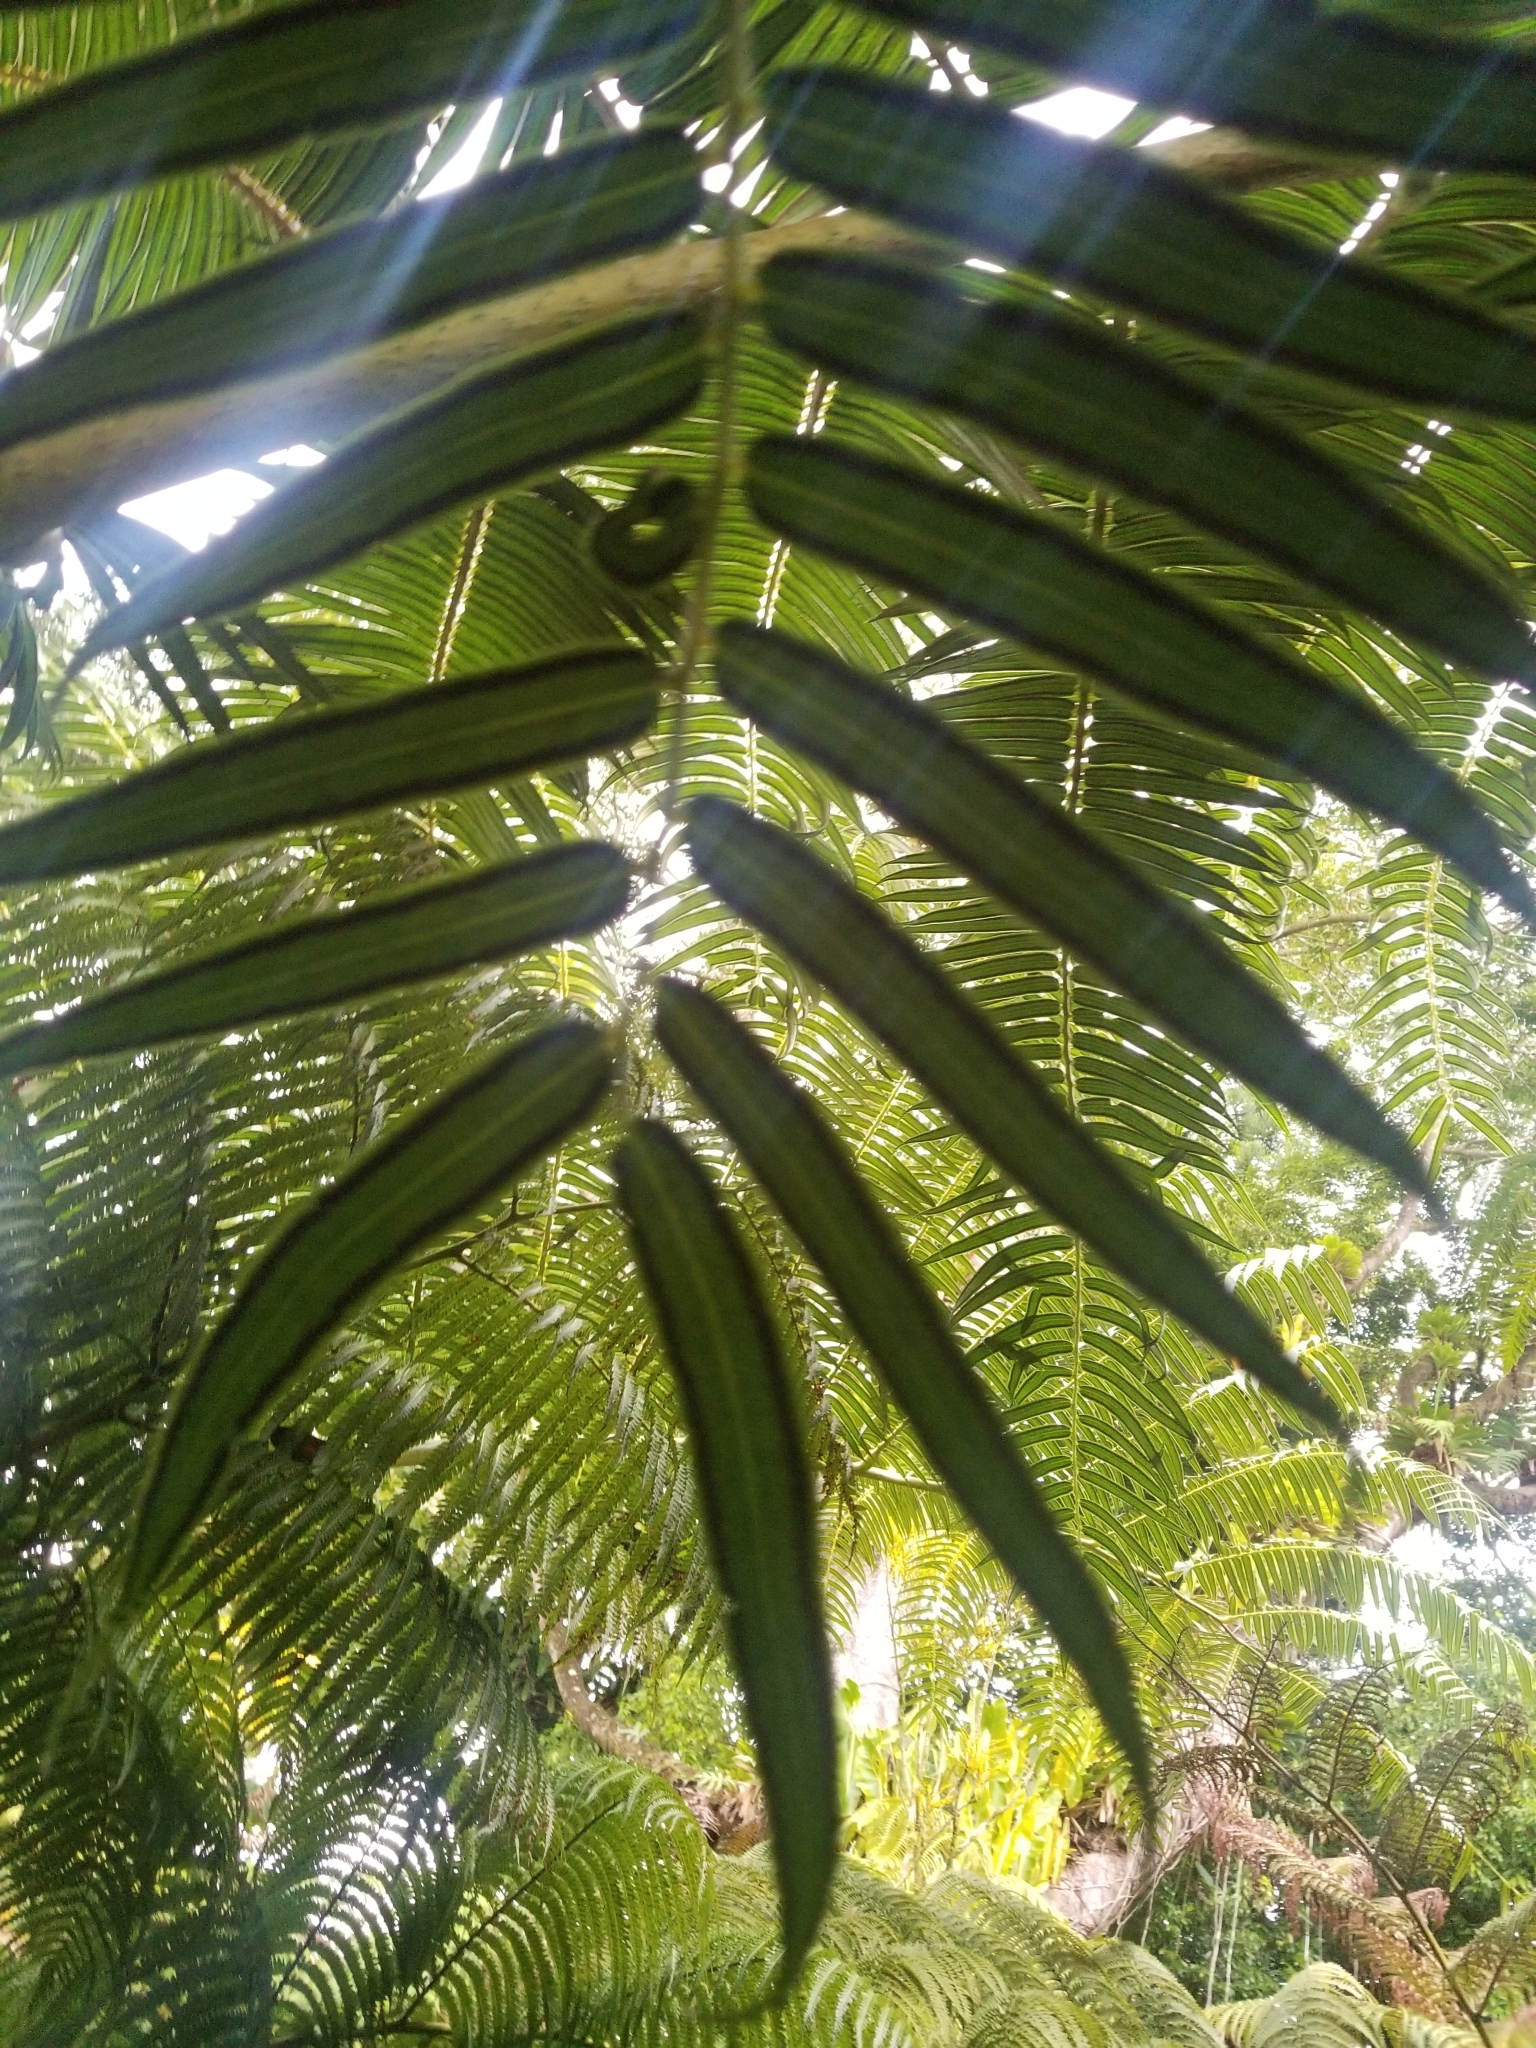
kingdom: Plantae
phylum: Tracheophyta
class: Polypodiopsida
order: Marattiales
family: Marattiaceae
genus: Angiopteris
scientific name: Angiopteris evecta
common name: Mule's-foot fern
